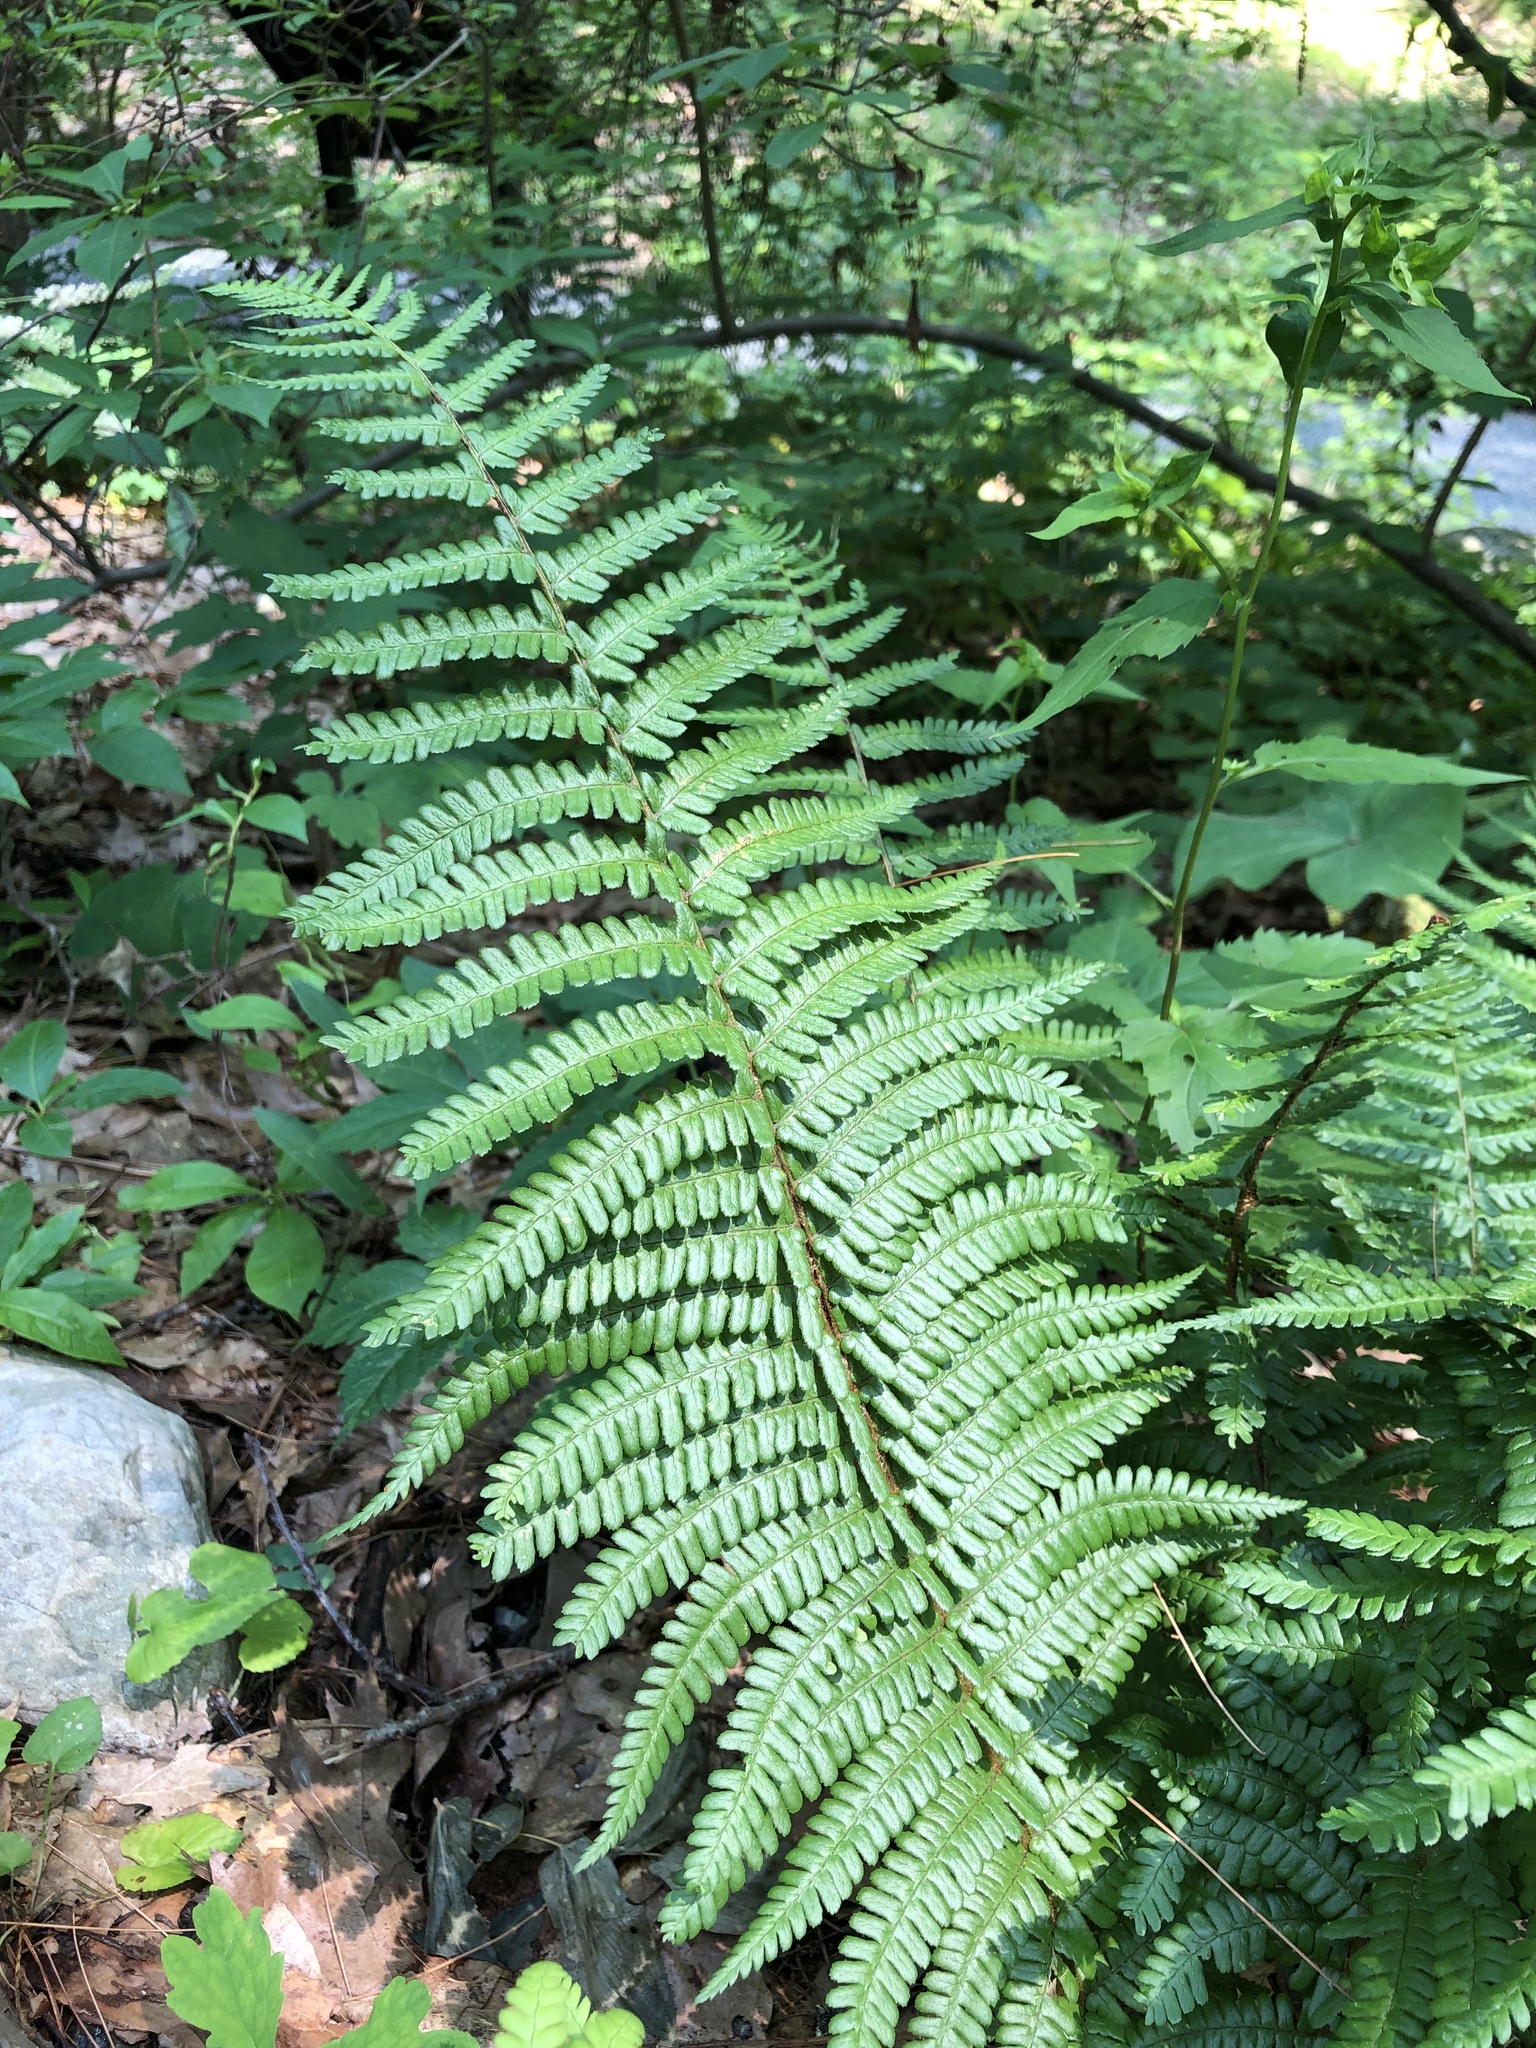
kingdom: Plantae
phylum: Tracheophyta
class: Polypodiopsida
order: Osmundales
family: Osmundaceae
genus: Osmundastrum
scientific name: Osmundastrum cinnamomeum
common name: Cinnamon fern
